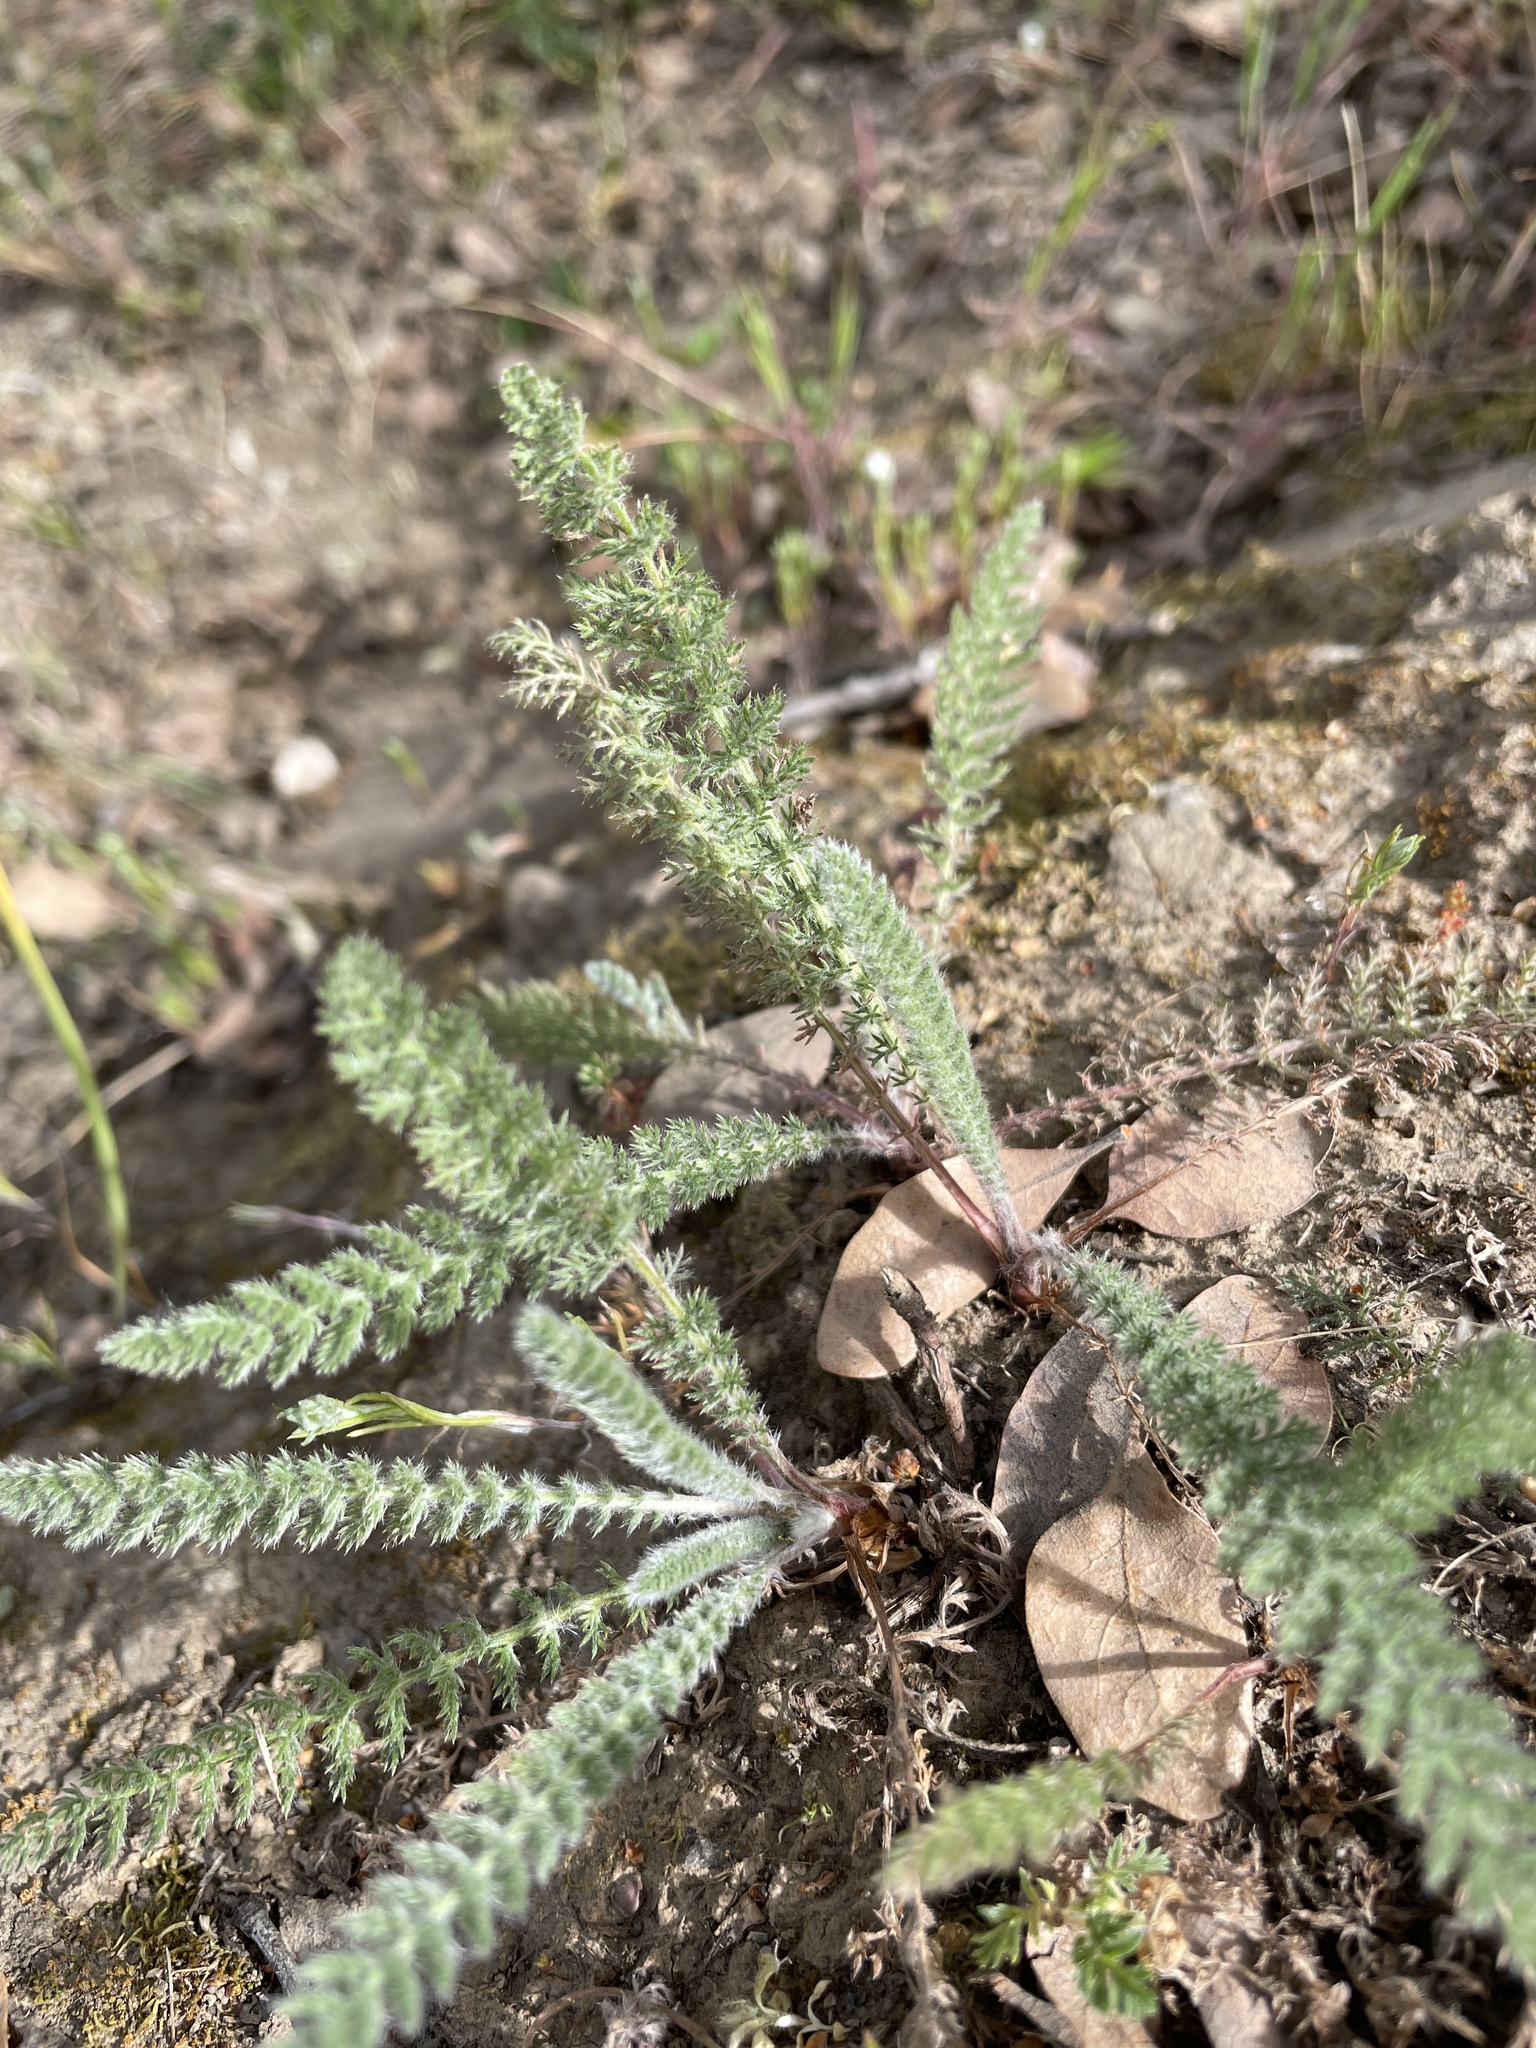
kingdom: Plantae
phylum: Tracheophyta
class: Magnoliopsida
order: Asterales
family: Asteraceae
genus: Achillea
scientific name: Achillea millefolium
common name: Yarrow
